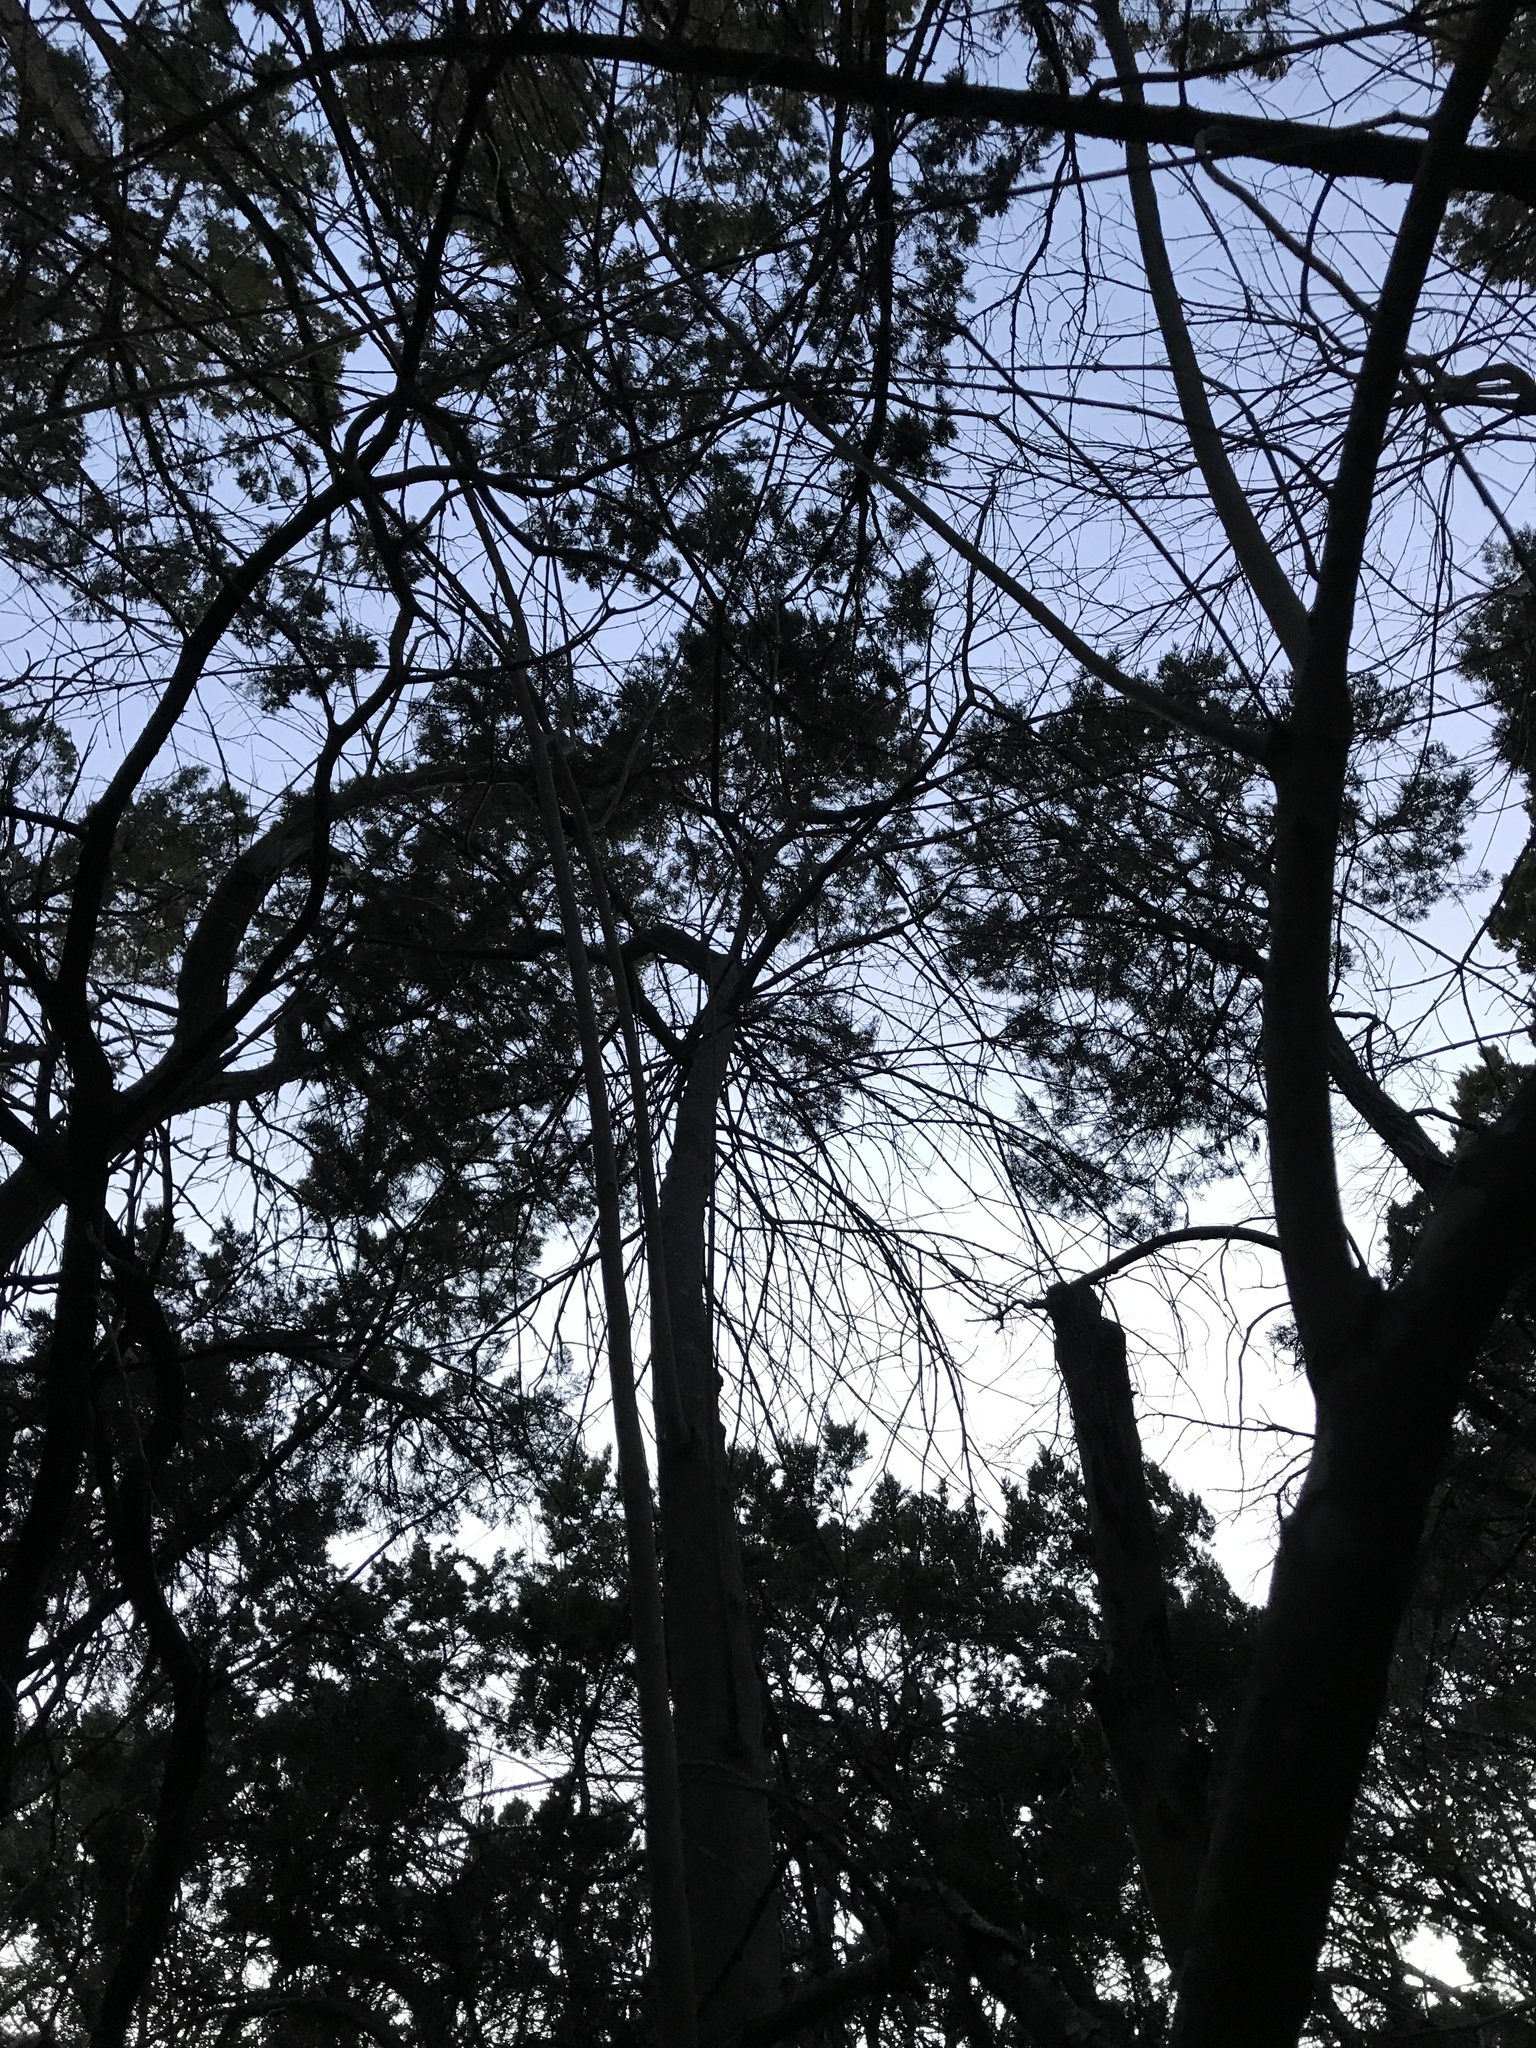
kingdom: Plantae
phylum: Tracheophyta
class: Magnoliopsida
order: Lamiales
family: Oleaceae
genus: Ligustrum
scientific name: Ligustrum lucidum
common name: Glossy privet
